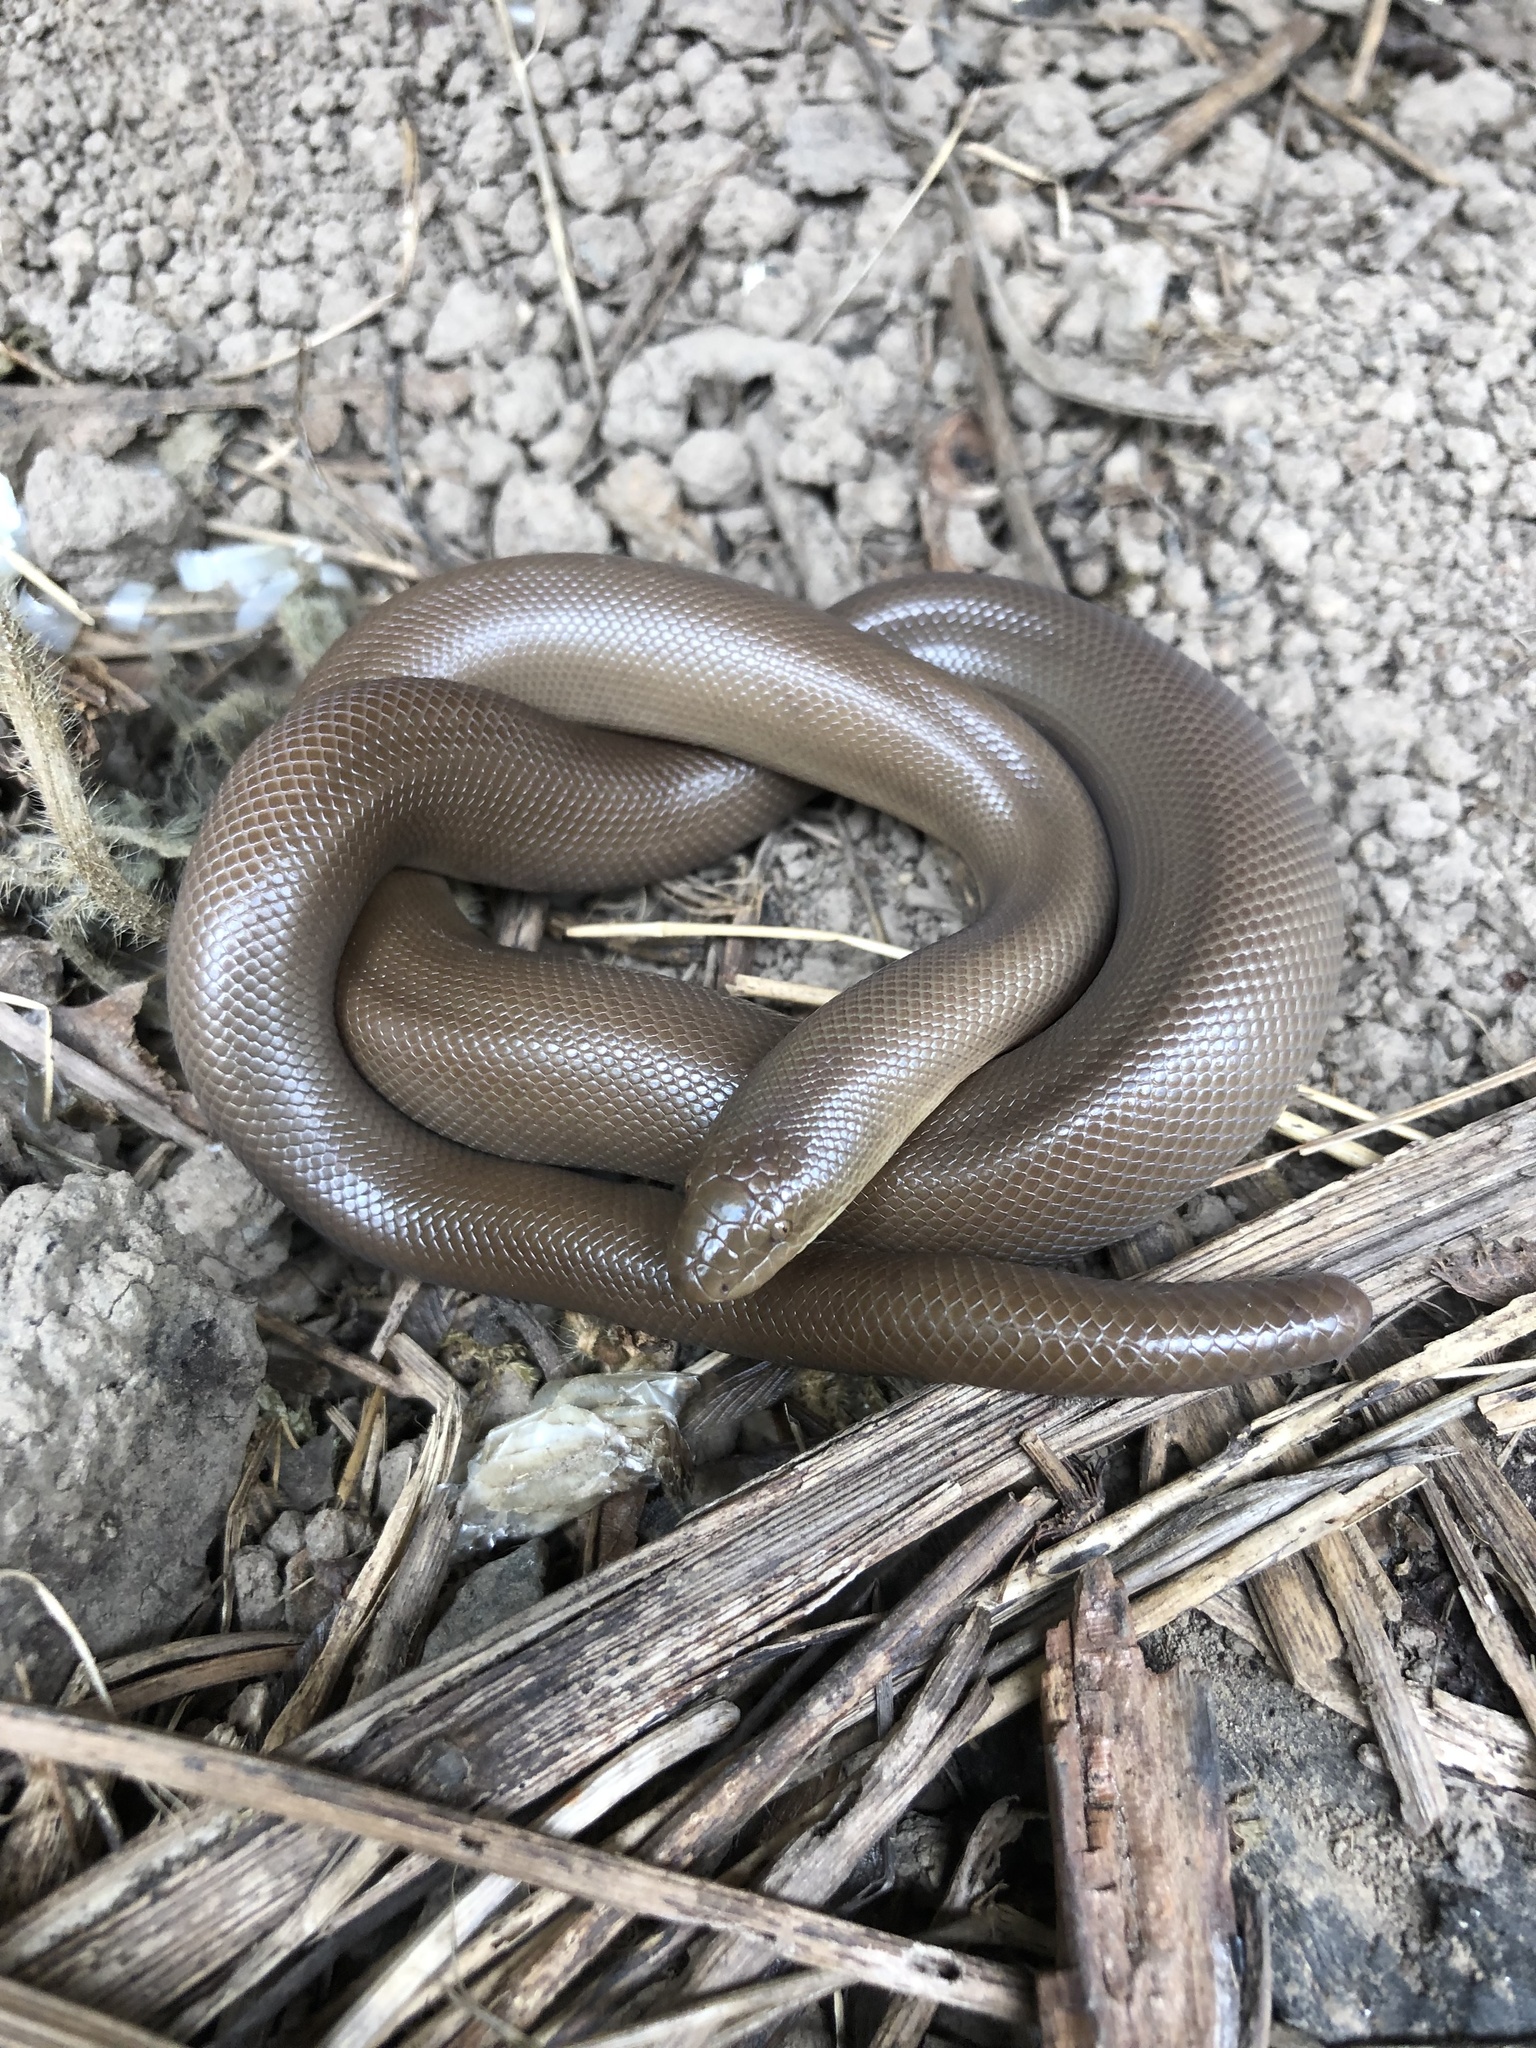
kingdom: Animalia
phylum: Chordata
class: Squamata
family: Boidae
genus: Charina
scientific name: Charina bottae
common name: Northern rubber boa
